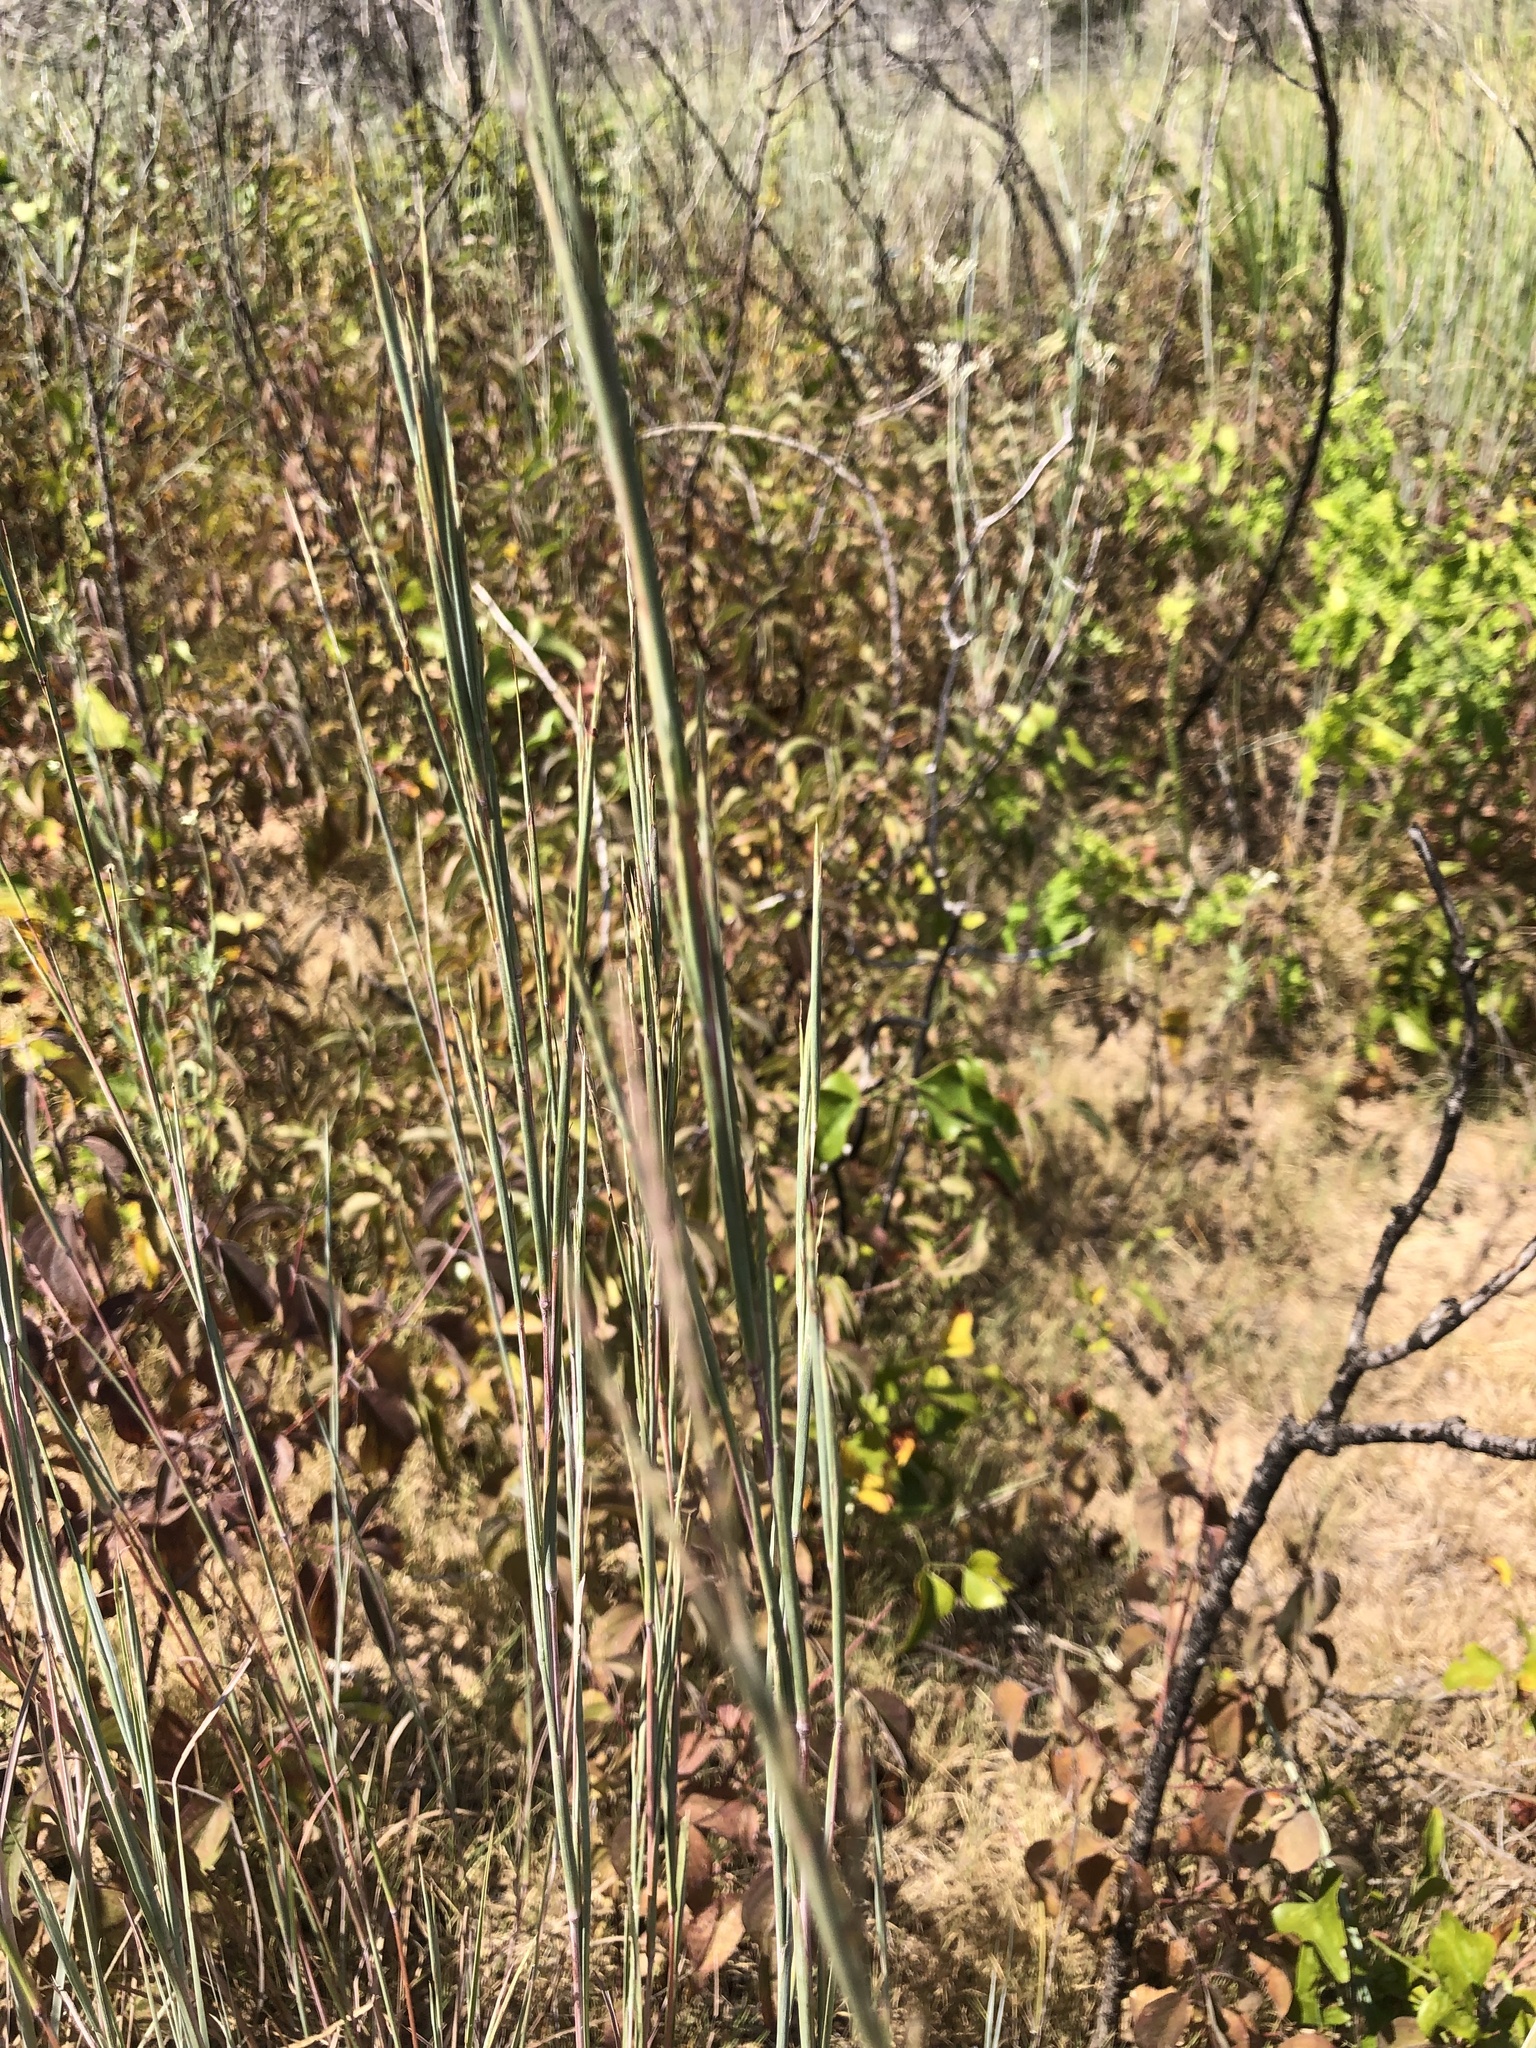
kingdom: Plantae
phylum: Tracheophyta
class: Liliopsida
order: Poales
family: Poaceae
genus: Schizachyrium
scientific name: Schizachyrium scoparium
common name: Little bluestem
